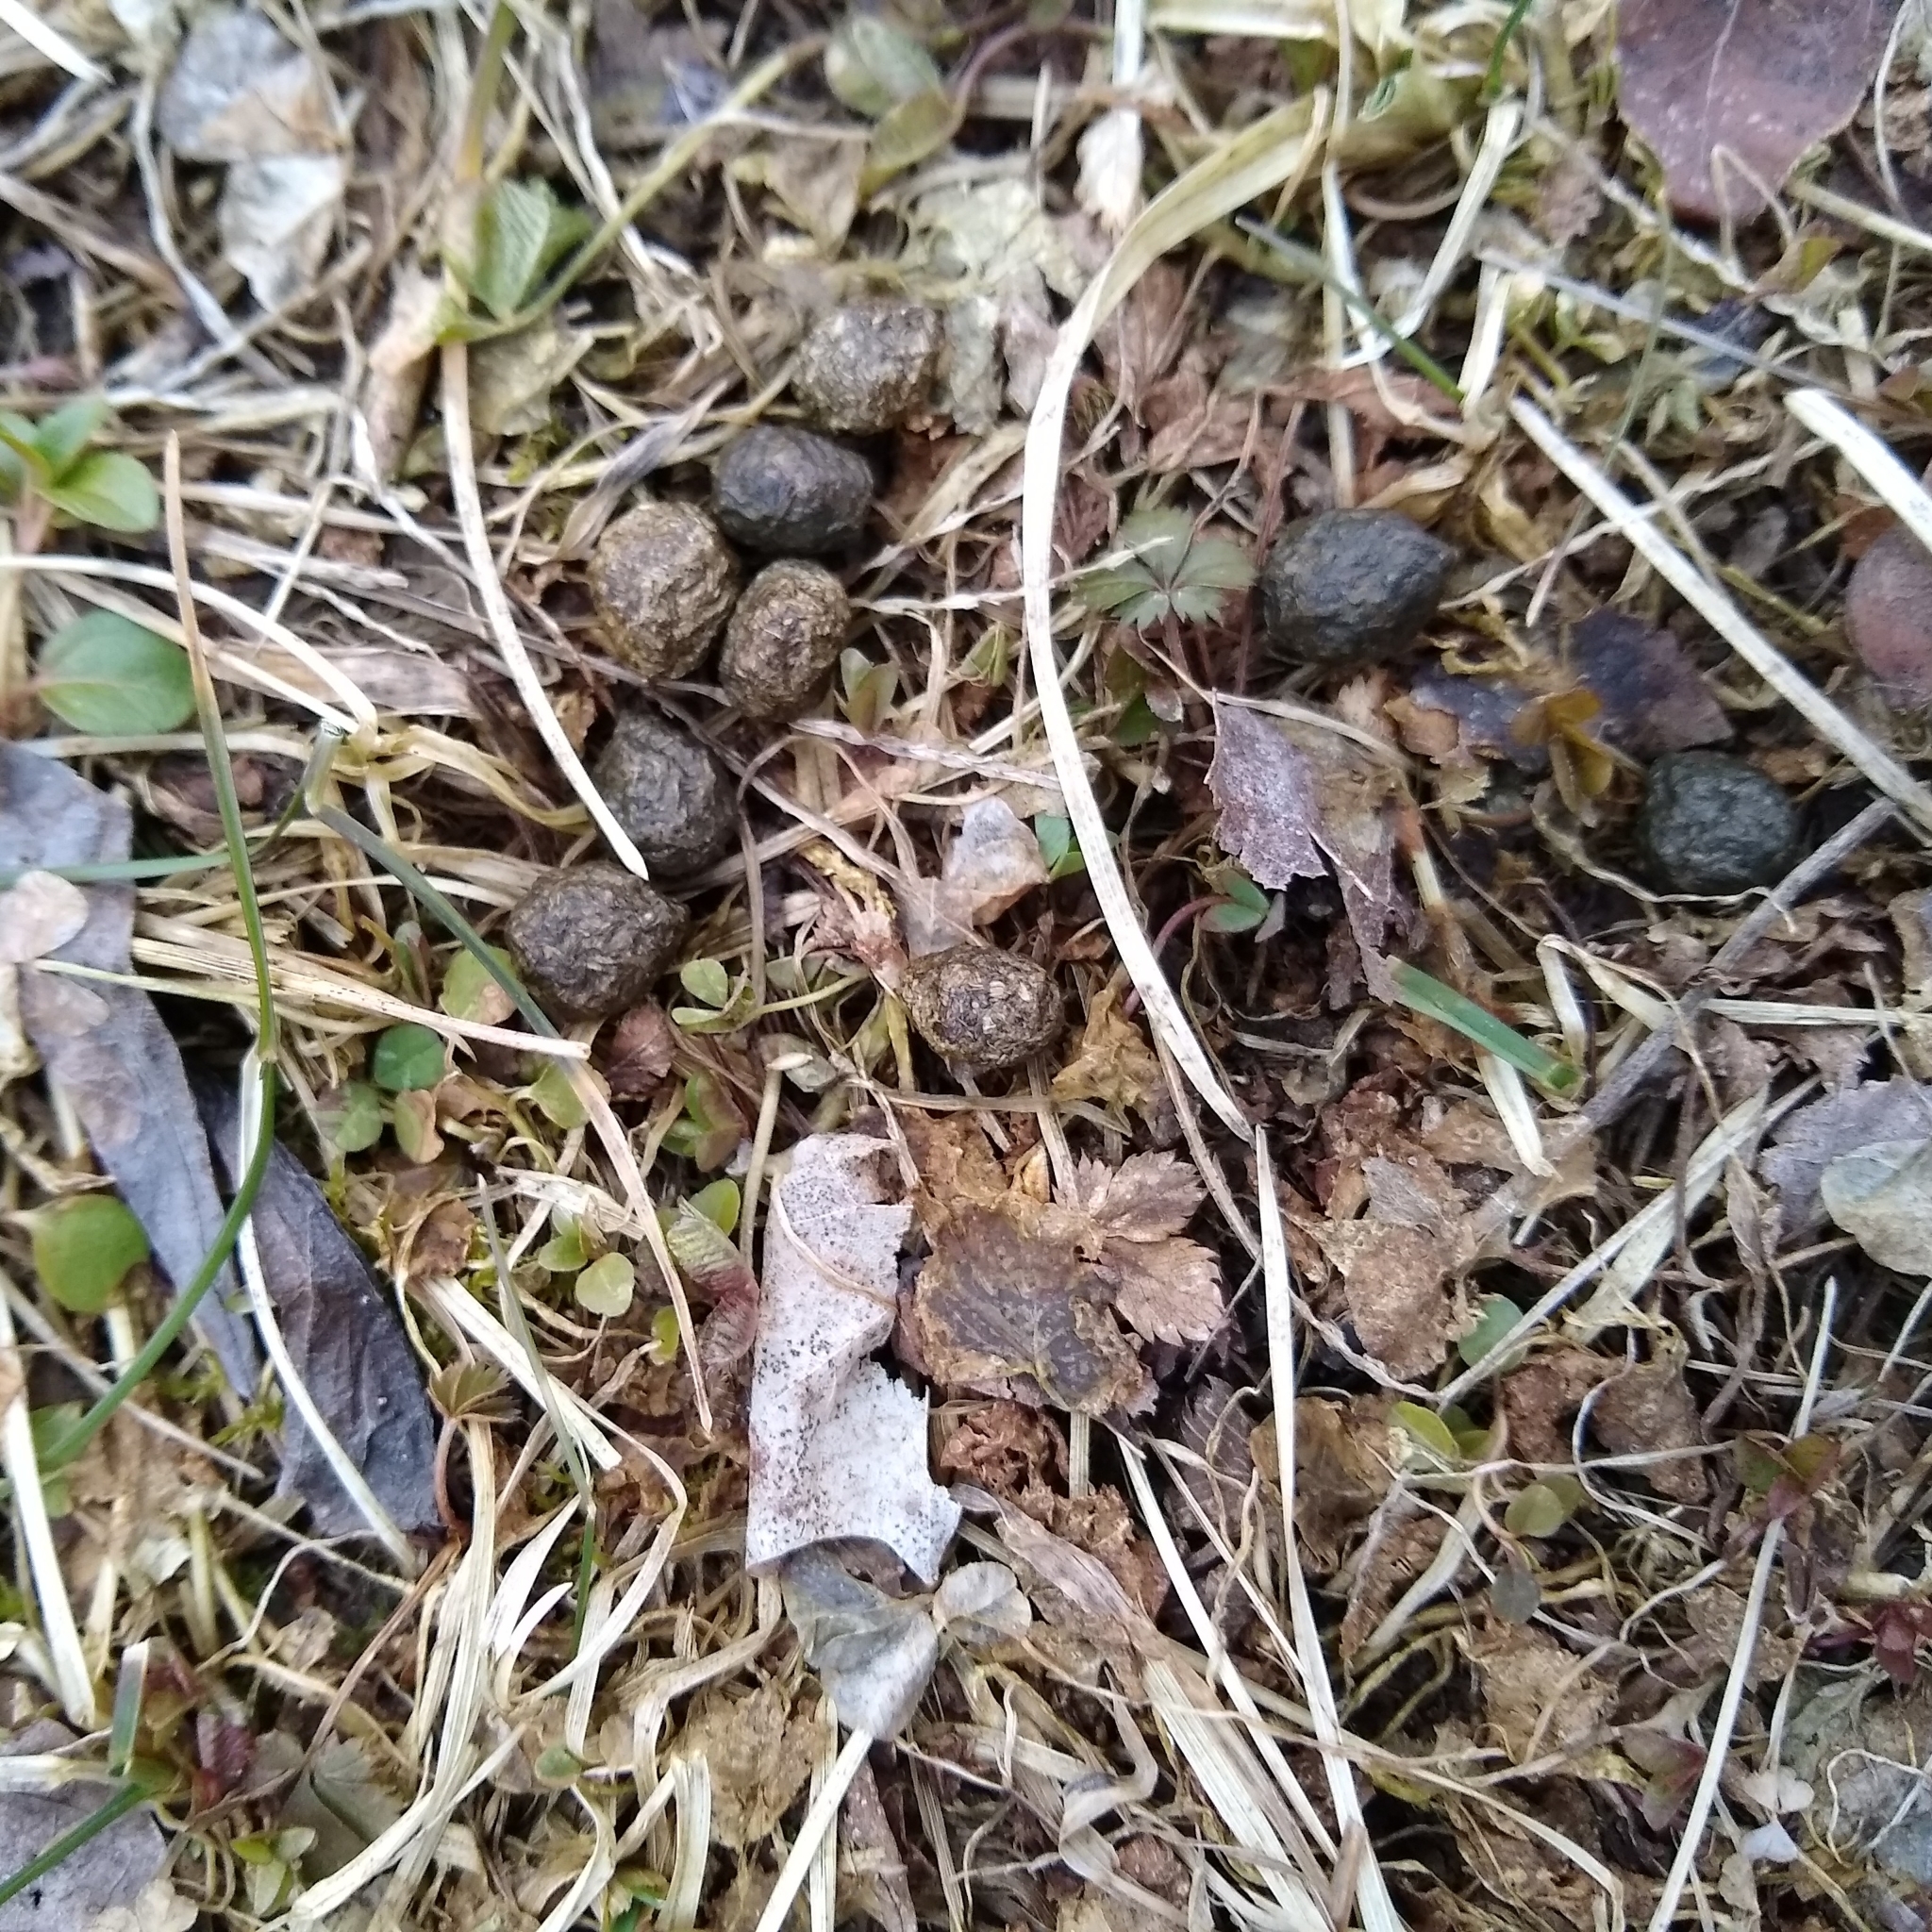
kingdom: Animalia
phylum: Chordata
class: Mammalia
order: Lagomorpha
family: Leporidae
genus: Sylvilagus
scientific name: Sylvilagus floridanus
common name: Eastern cottontail
